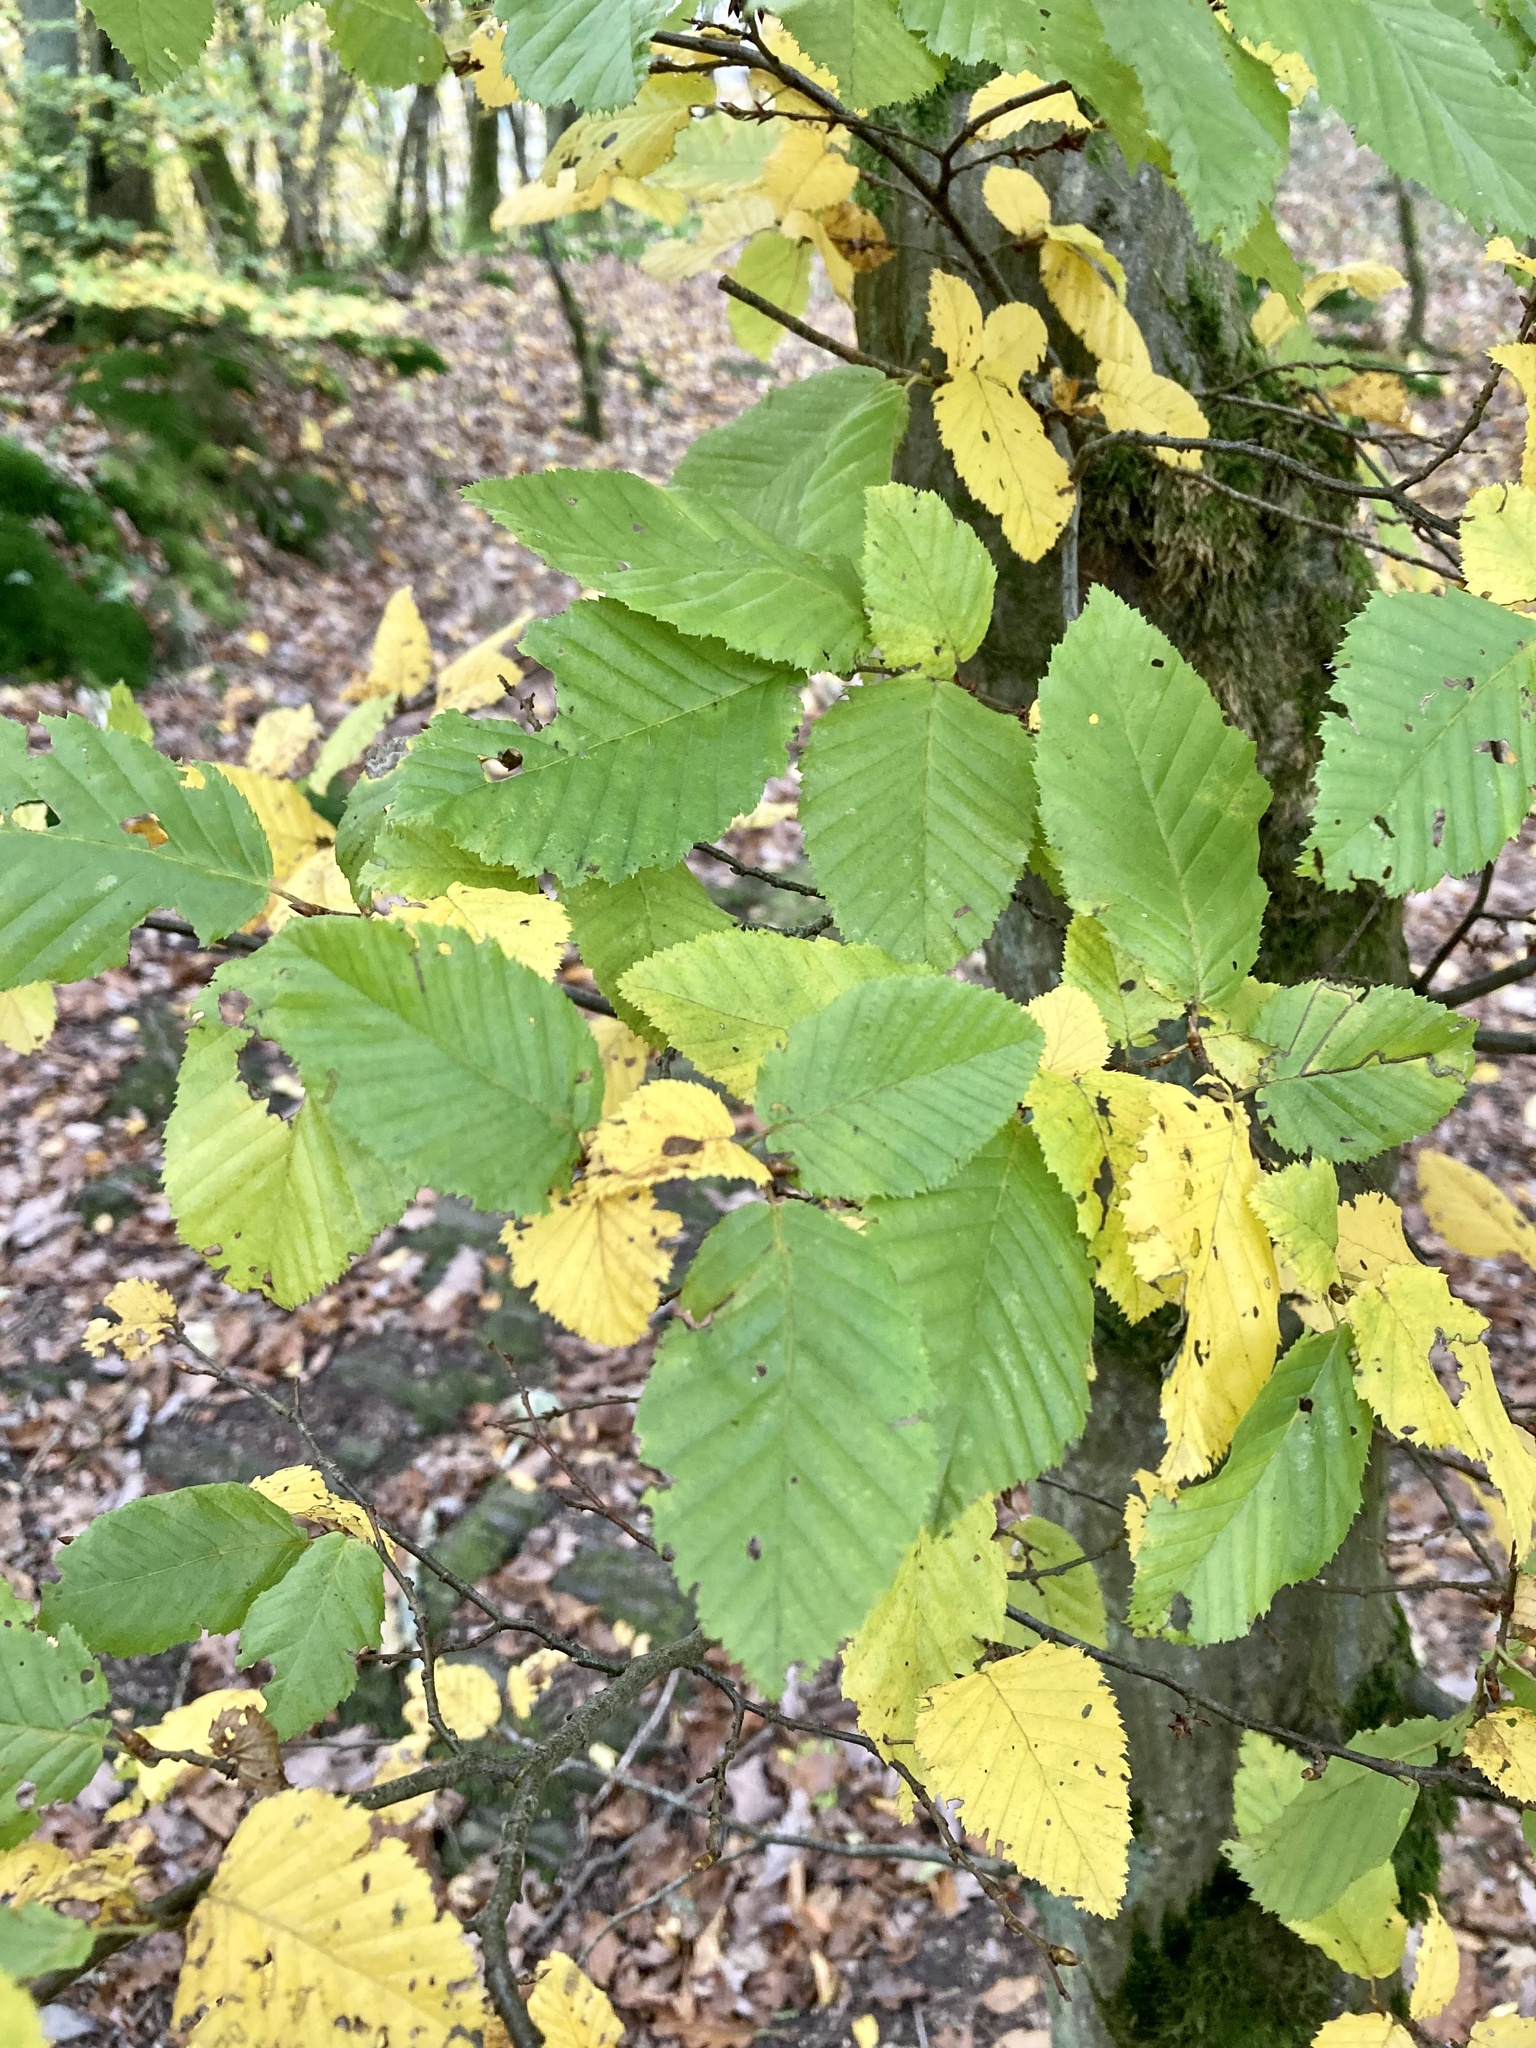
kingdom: Plantae
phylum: Tracheophyta
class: Magnoliopsida
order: Fagales
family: Betulaceae
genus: Carpinus
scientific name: Carpinus betulus
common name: Hornbeam
